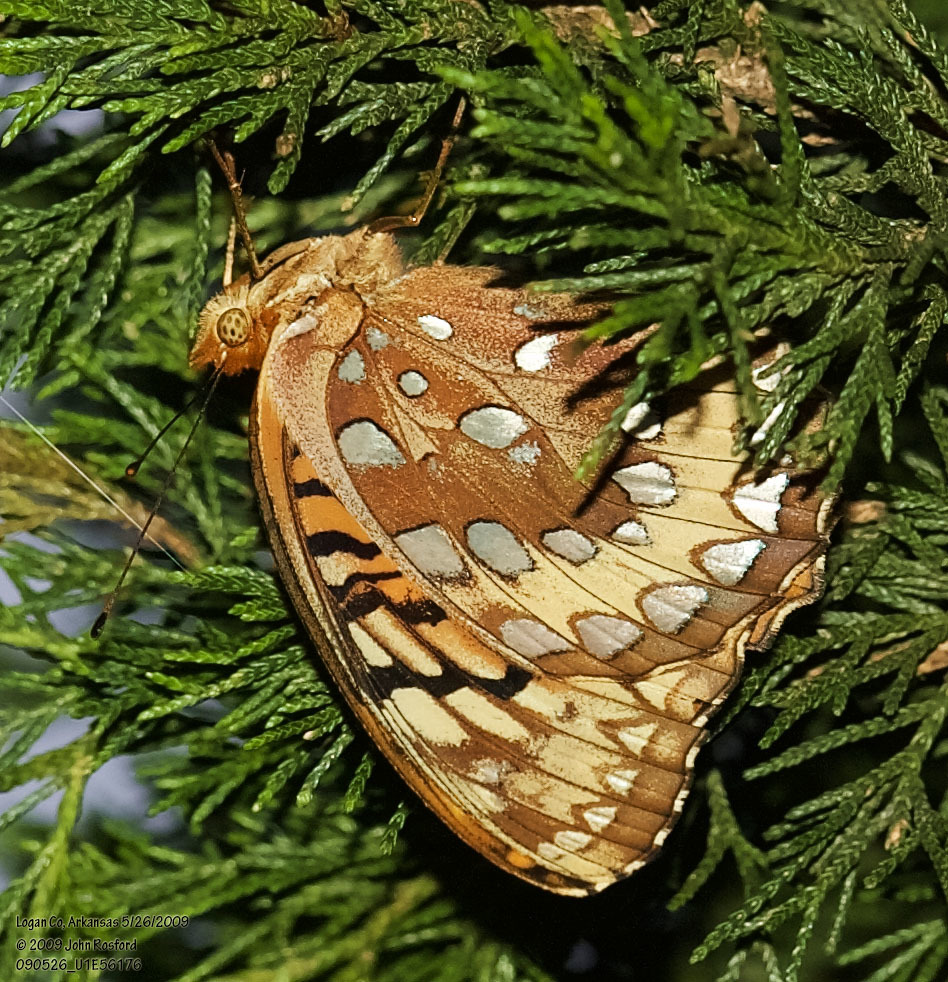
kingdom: Animalia
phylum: Arthropoda
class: Insecta
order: Lepidoptera
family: Nymphalidae
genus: Speyeria
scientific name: Speyeria cybele
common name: Great spangled fritillary
